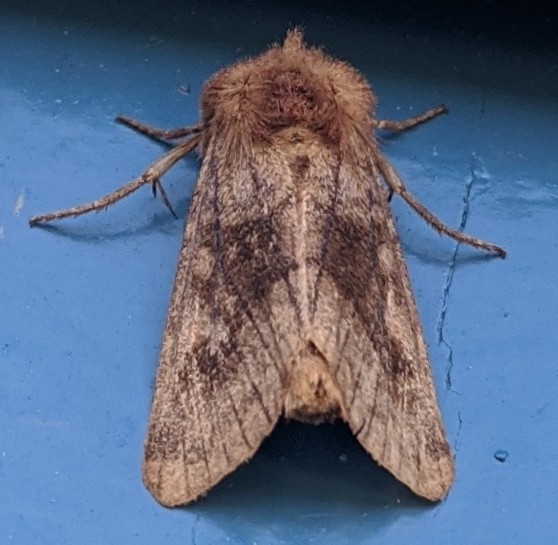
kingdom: Animalia
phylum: Arthropoda
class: Insecta
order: Lepidoptera
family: Noctuidae
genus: Nephelodes
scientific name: Nephelodes minians
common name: Bronzed cutworm
